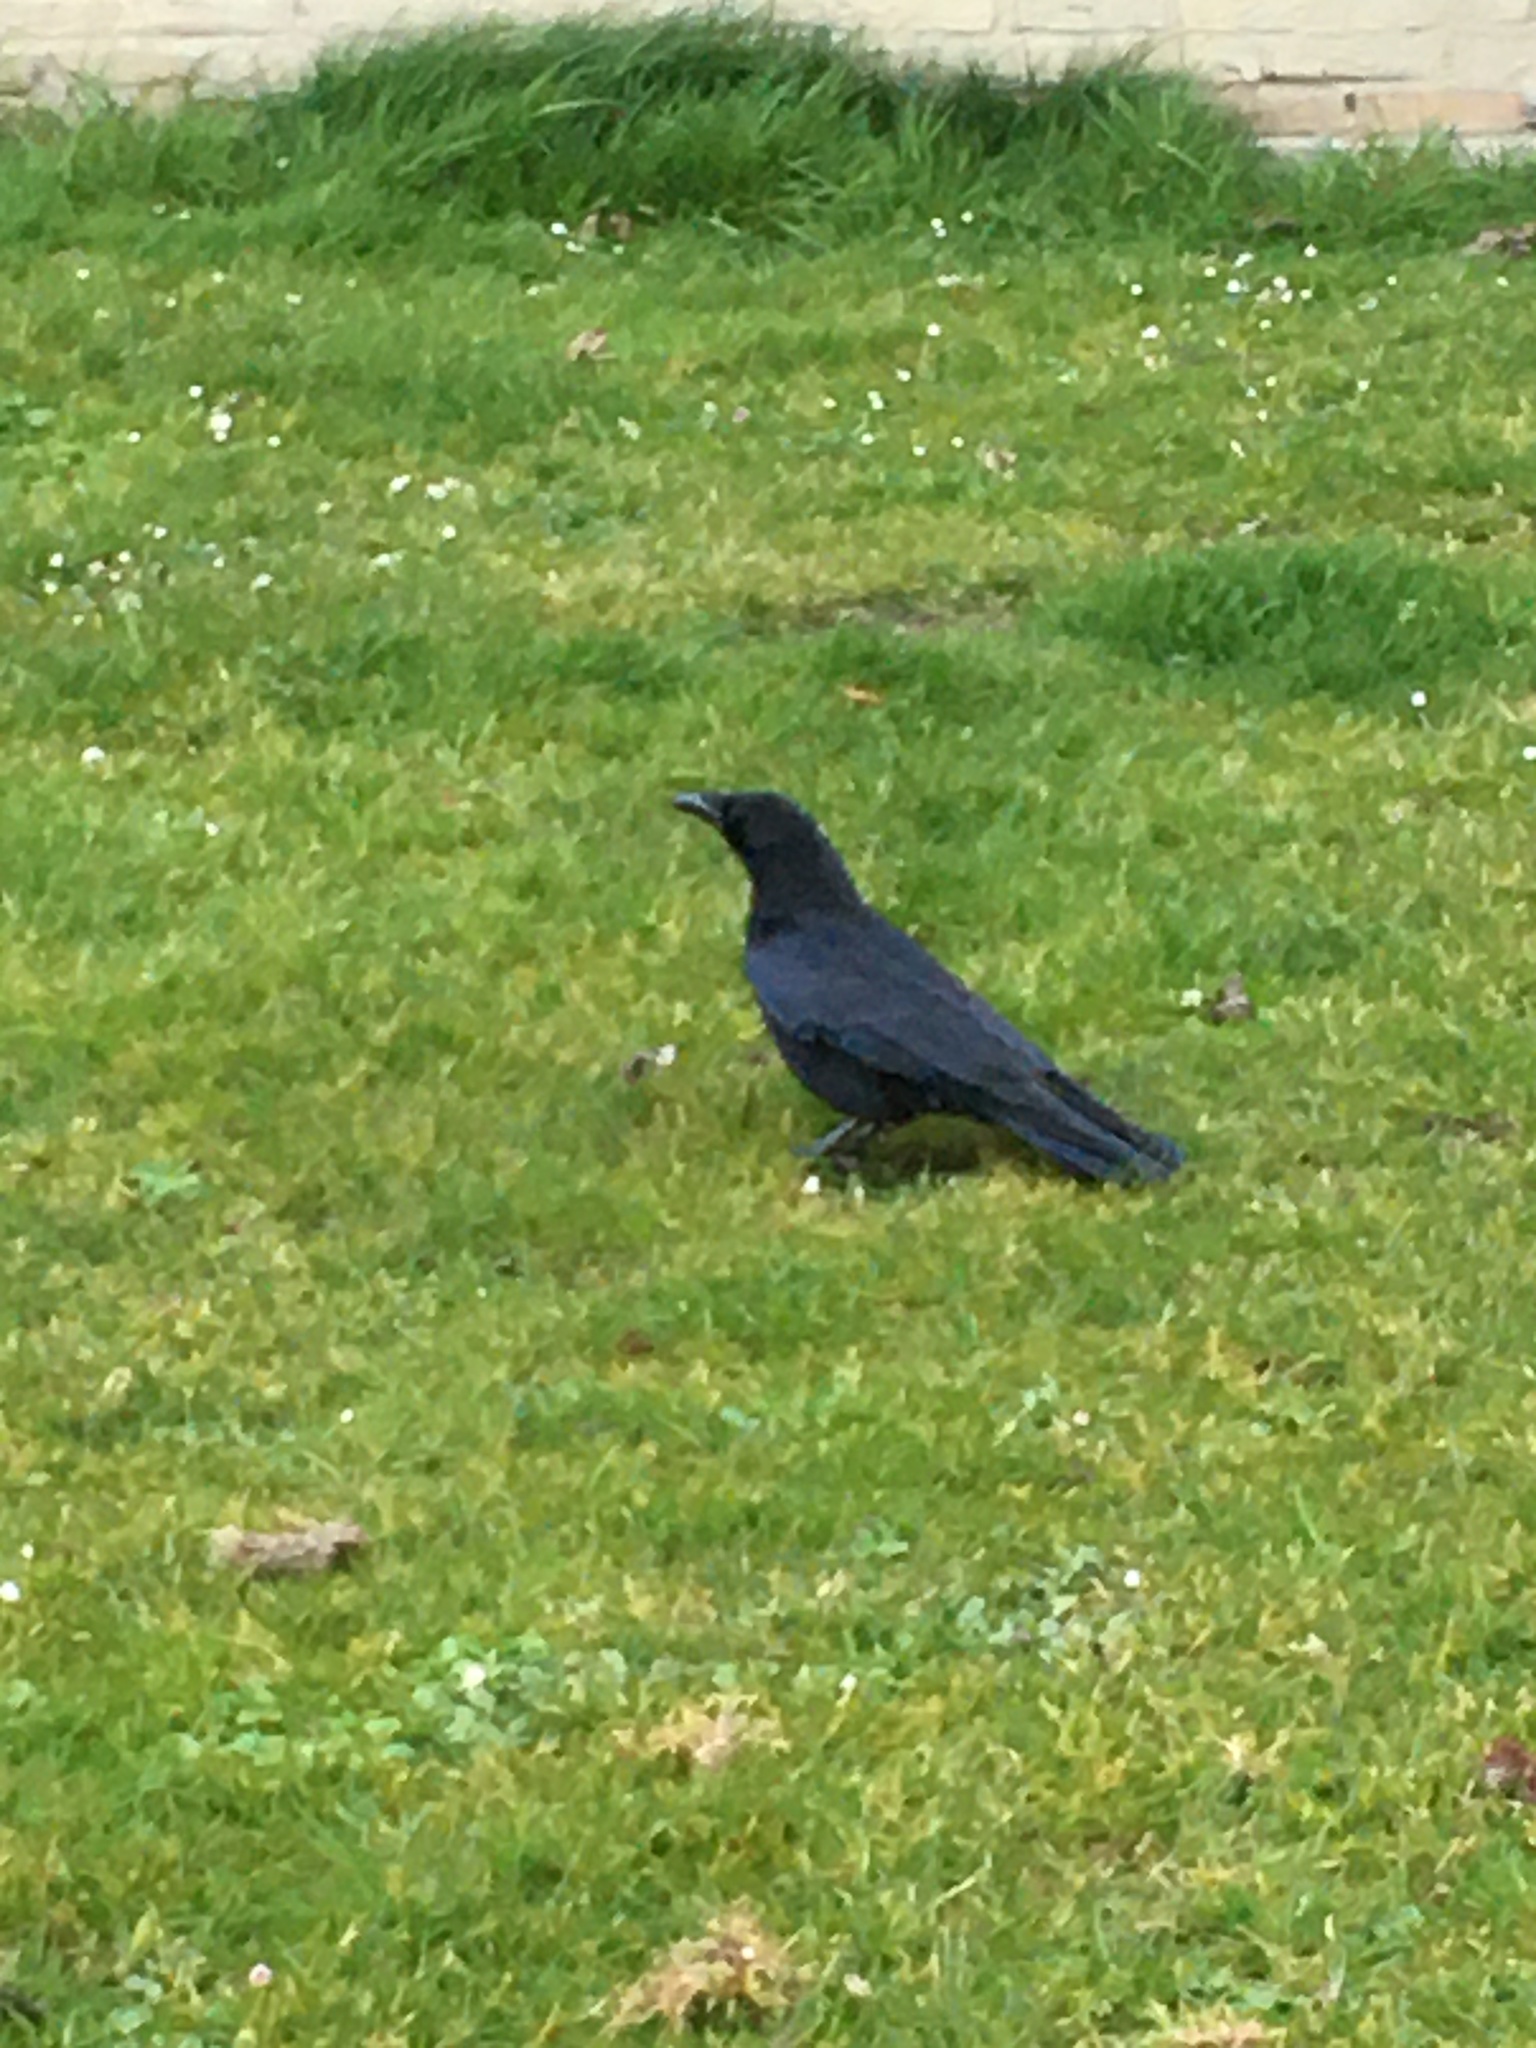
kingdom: Animalia
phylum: Chordata
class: Aves
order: Passeriformes
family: Corvidae
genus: Corvus
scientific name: Corvus corone
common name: Carrion crow
